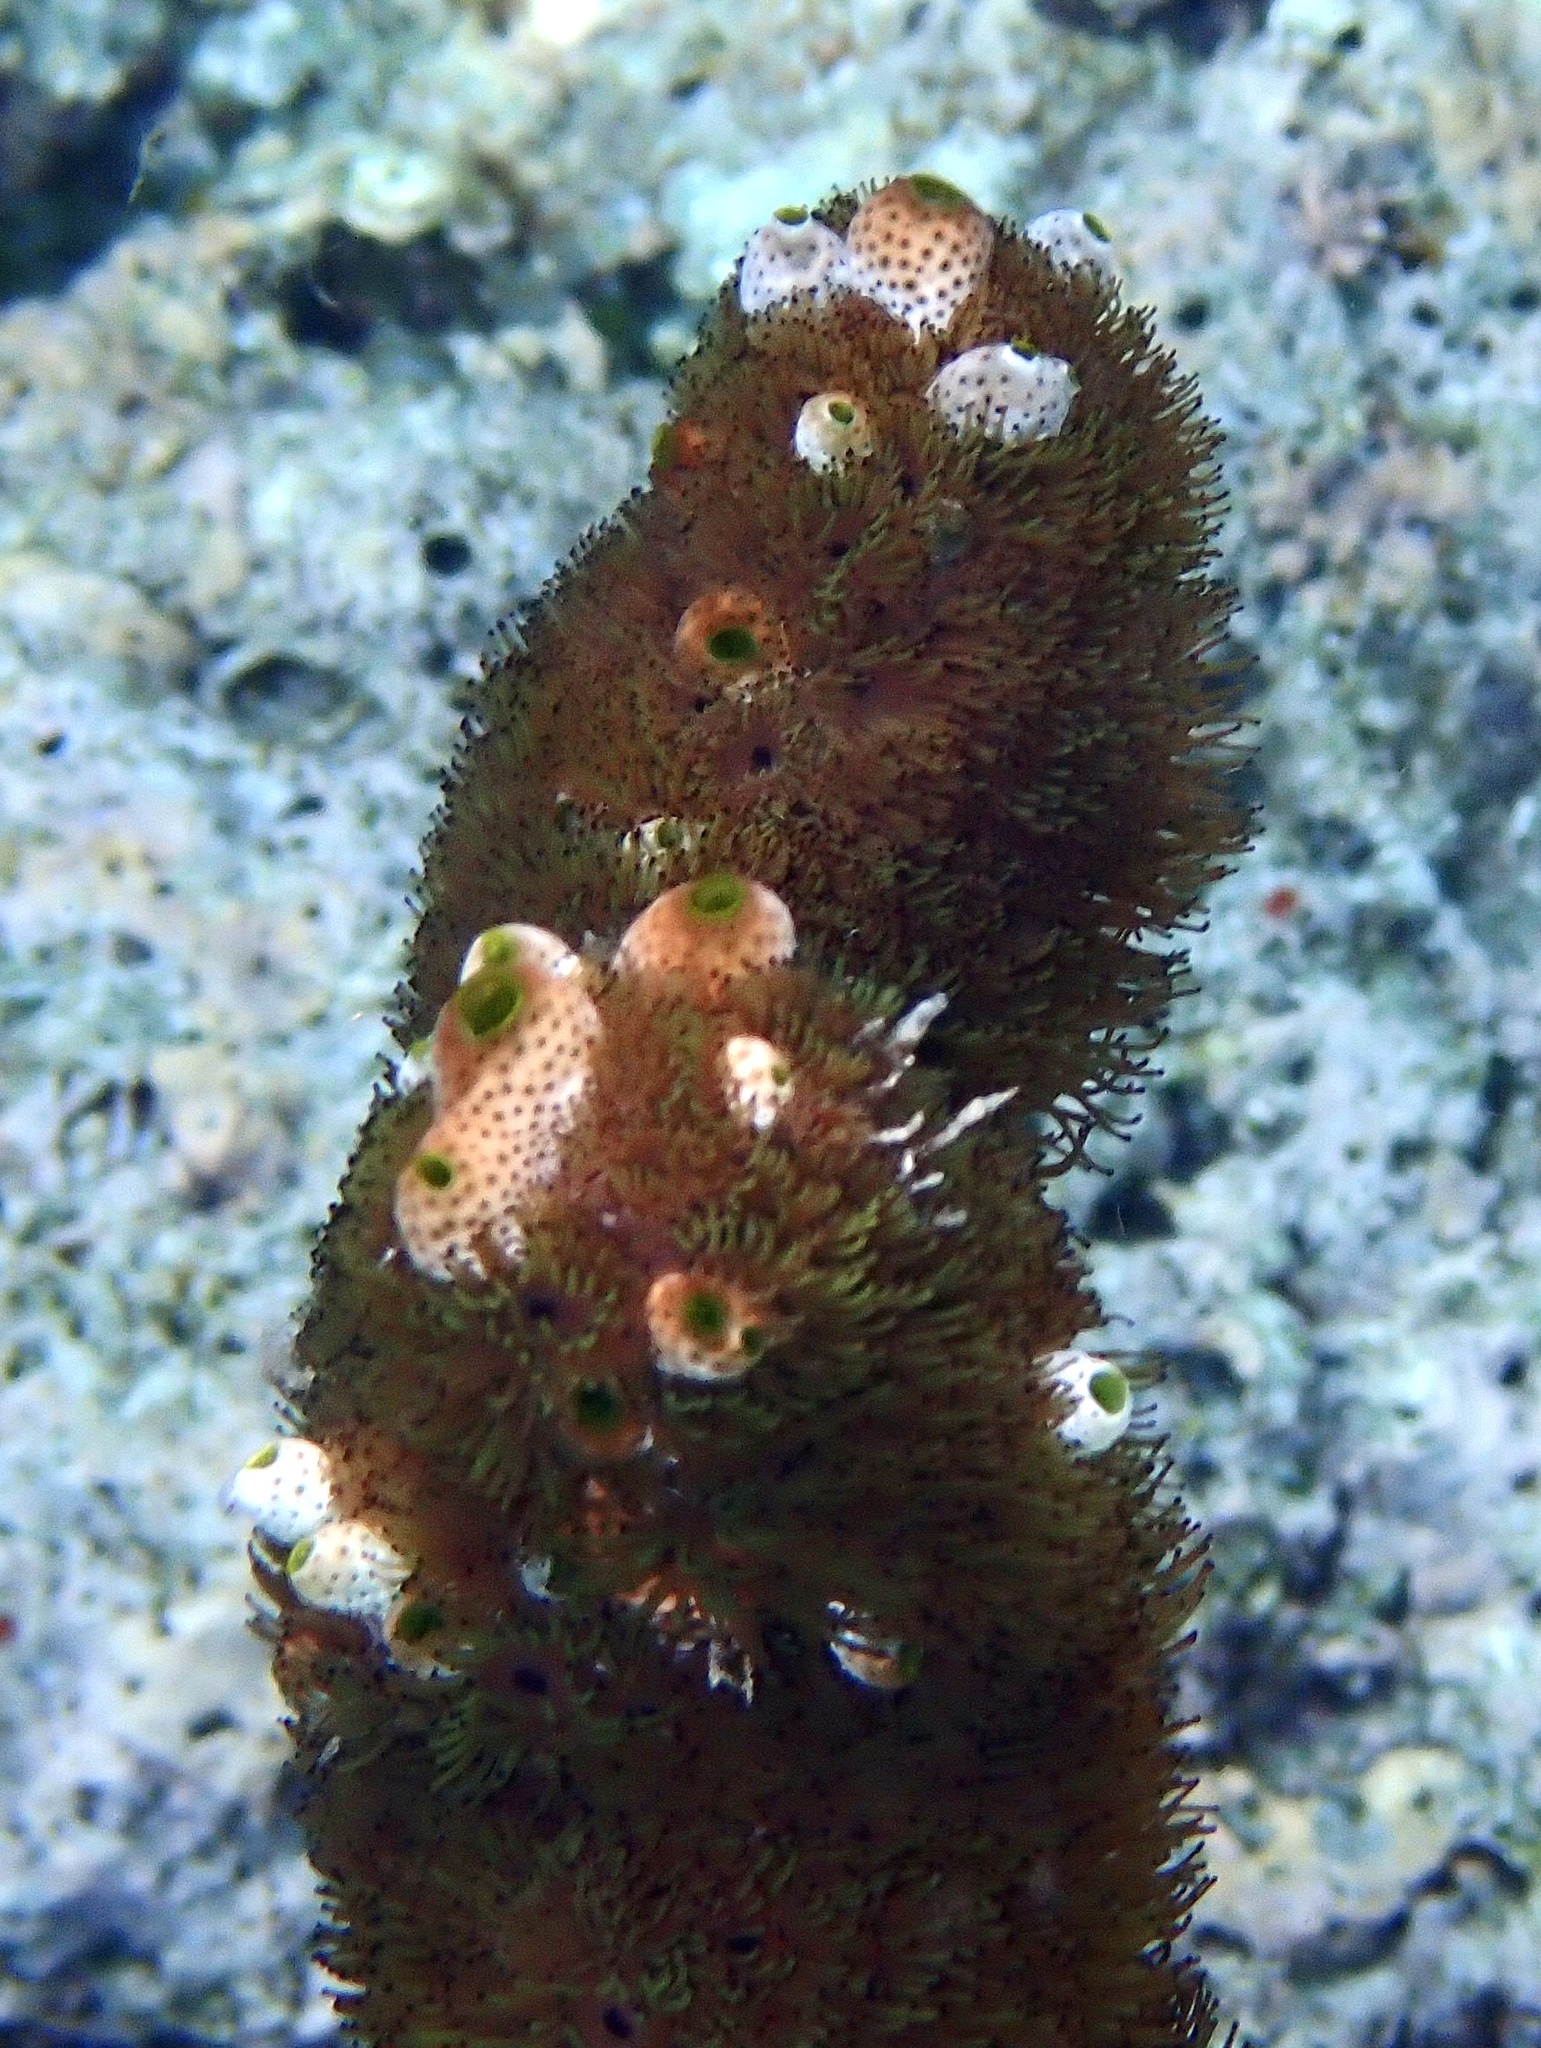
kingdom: Animalia
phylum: Cnidaria
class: Anthozoa
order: Zoantharia
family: Zoanthidae
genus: Acrozoanthus
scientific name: Acrozoanthus australiae
